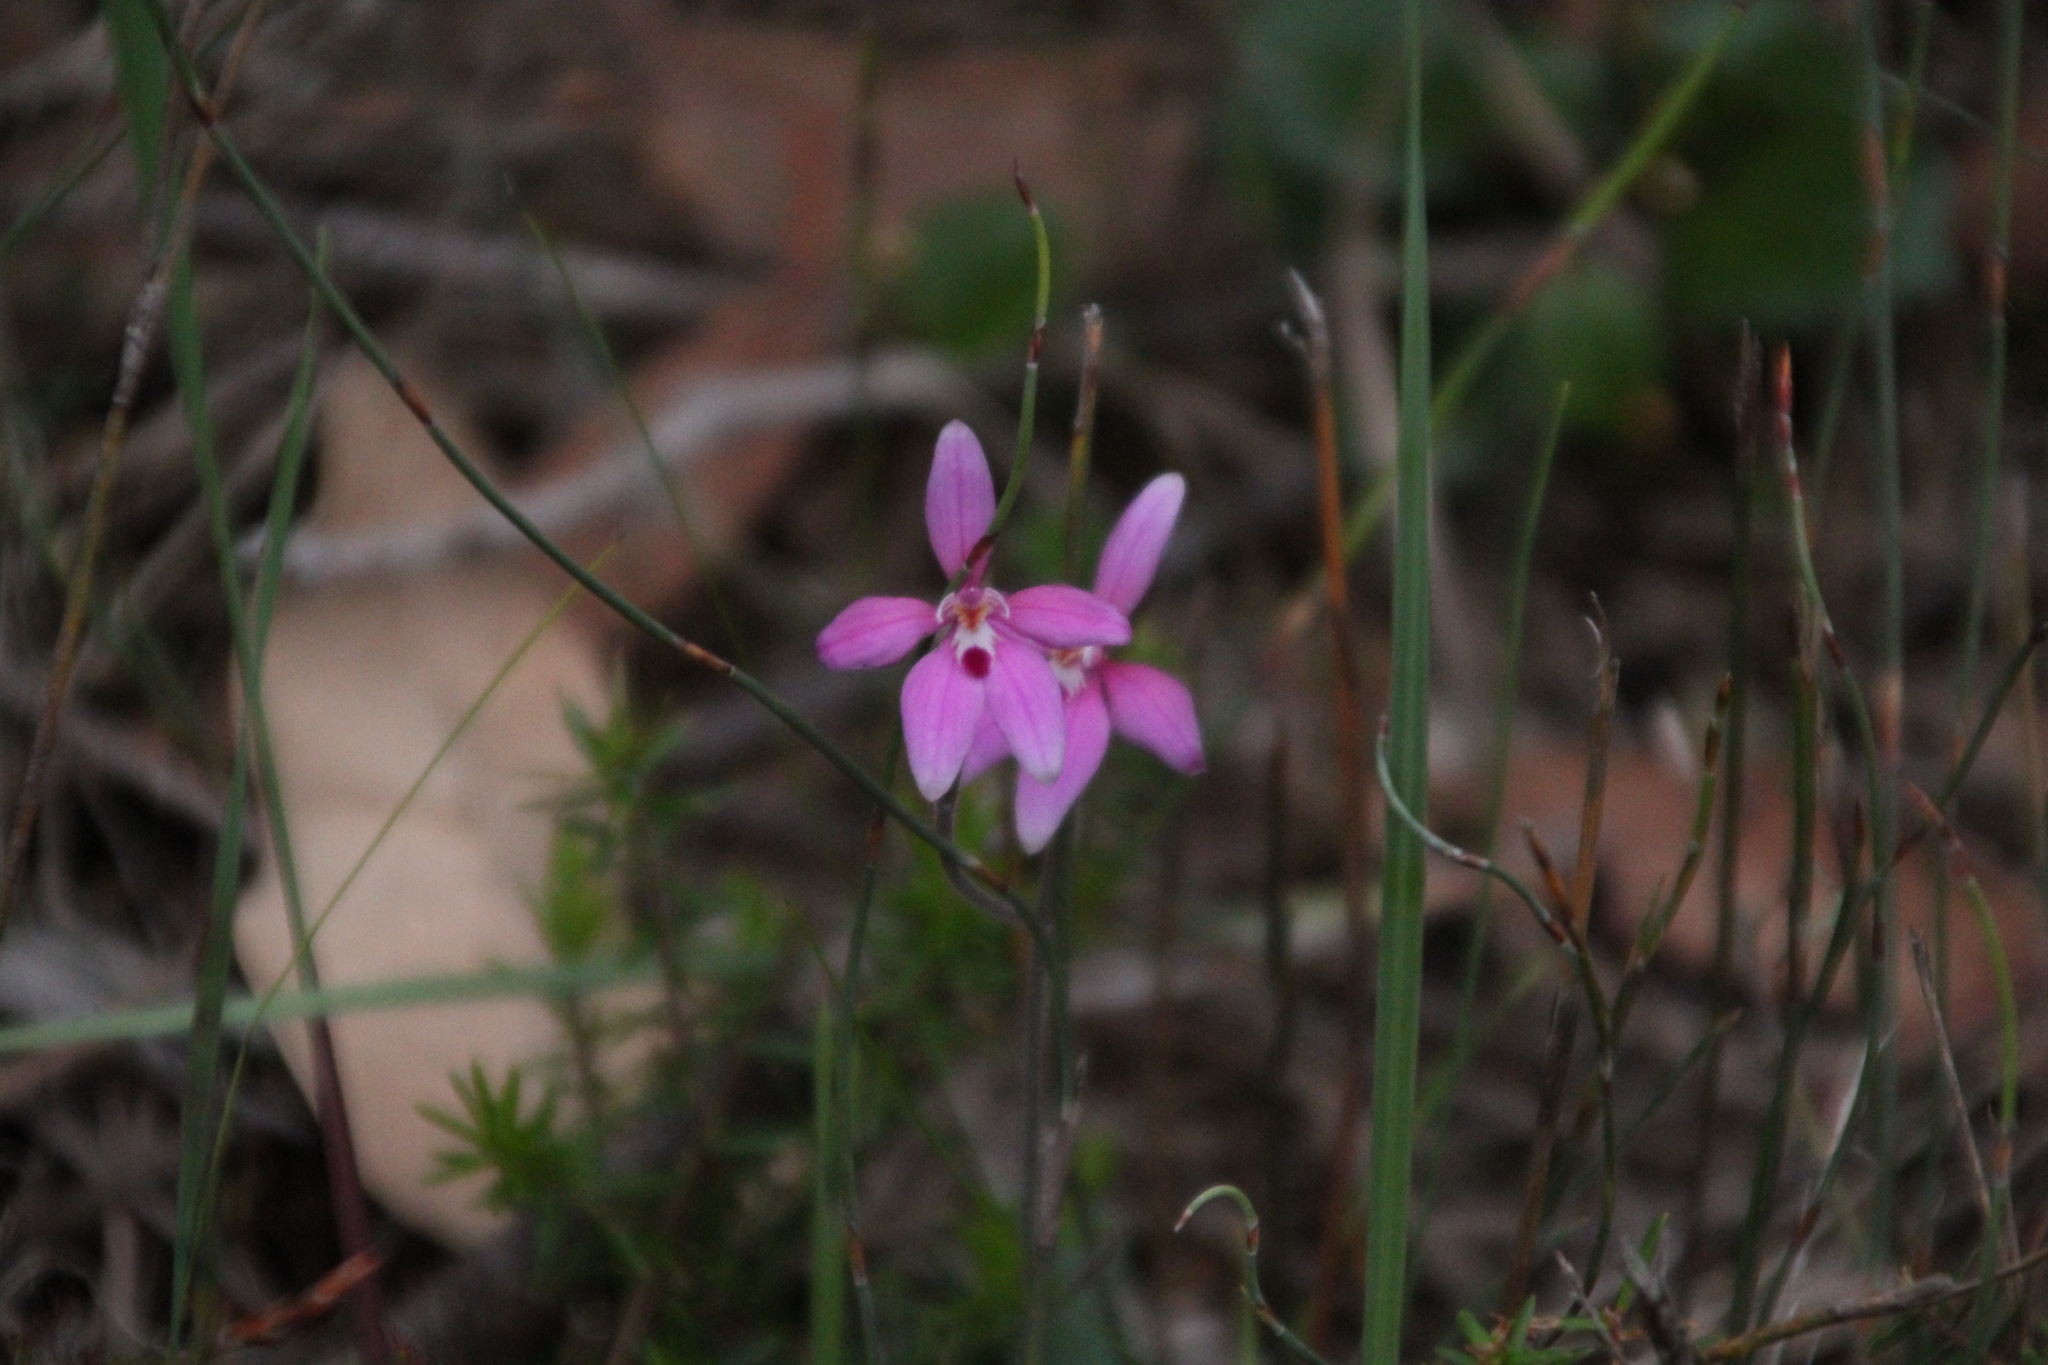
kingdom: Plantae
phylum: Tracheophyta
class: Liliopsida
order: Asparagales
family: Orchidaceae
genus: Caladenia
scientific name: Caladenia reptans
